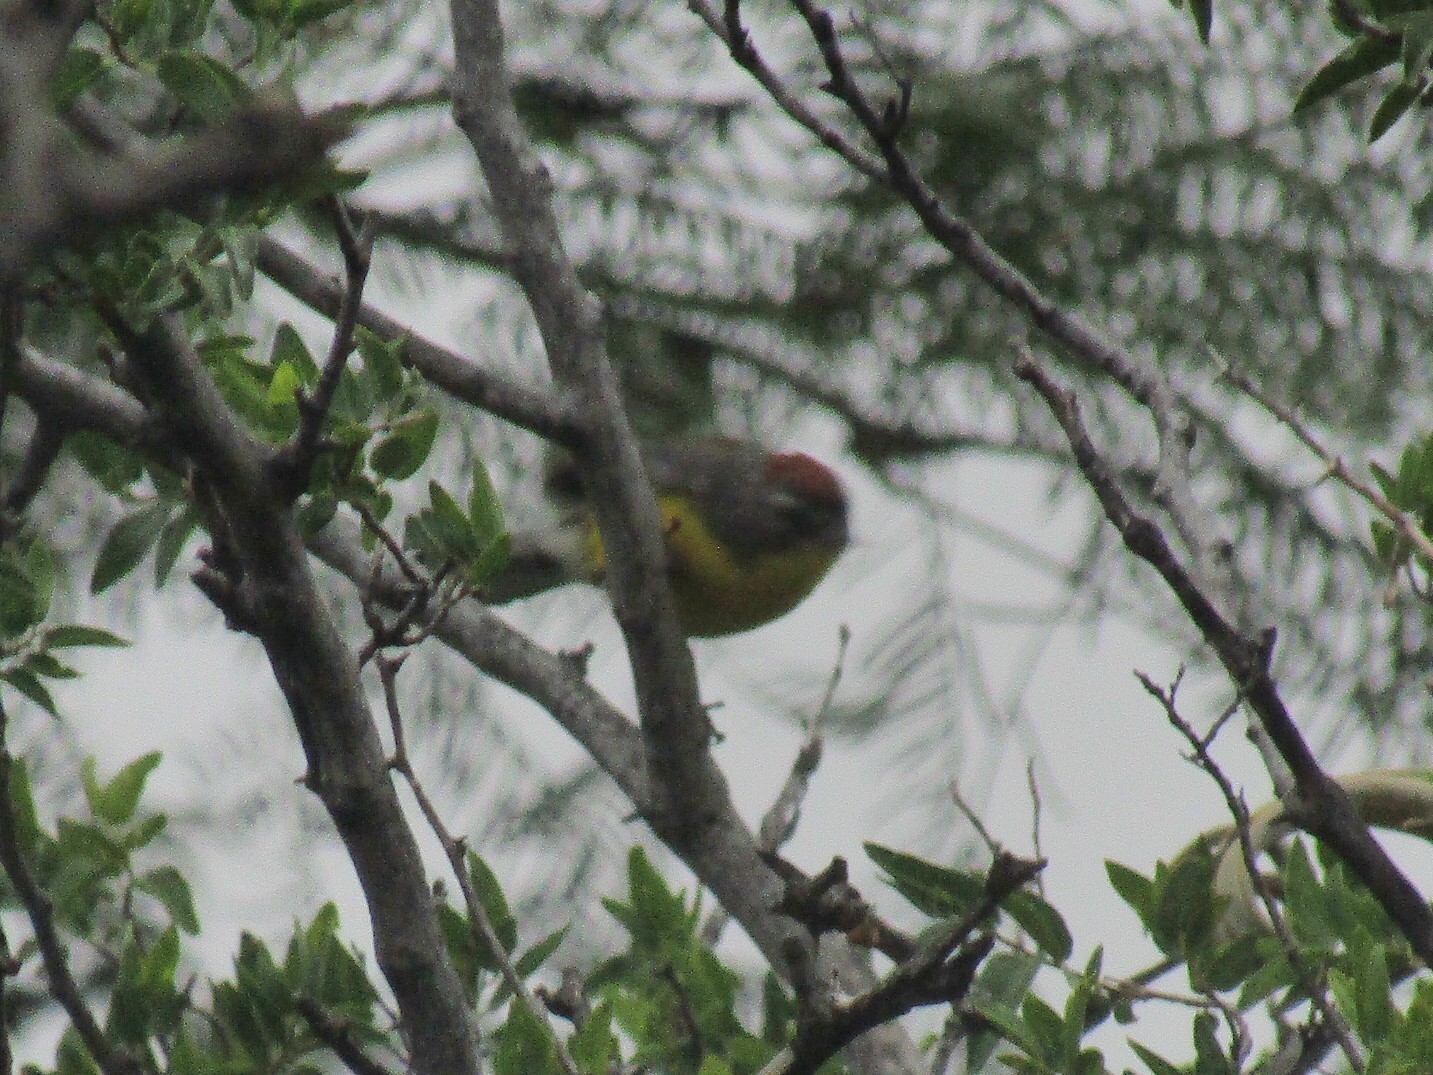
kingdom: Animalia
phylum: Chordata
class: Aves
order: Passeriformes
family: Parulidae
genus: Myioborus
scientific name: Myioborus brunniceps
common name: Brown-capped whitestart
